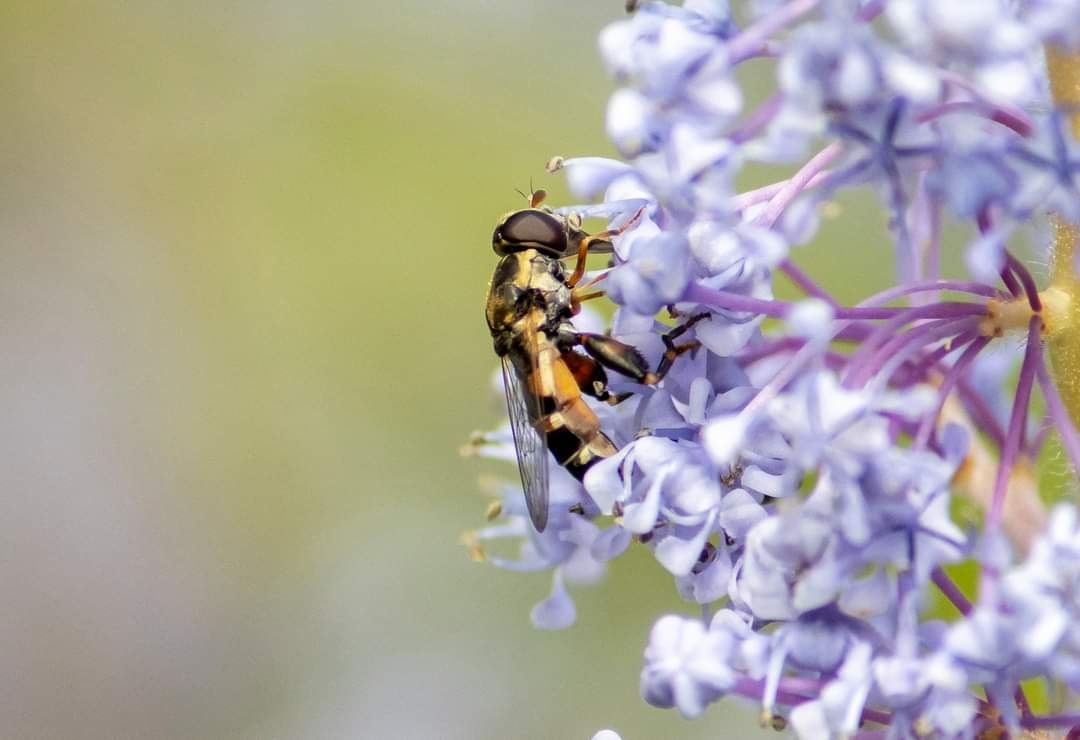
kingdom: Animalia
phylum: Arthropoda
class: Insecta
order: Diptera
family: Syrphidae
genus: Syritta
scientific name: Syritta pipiens
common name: Hover fly
